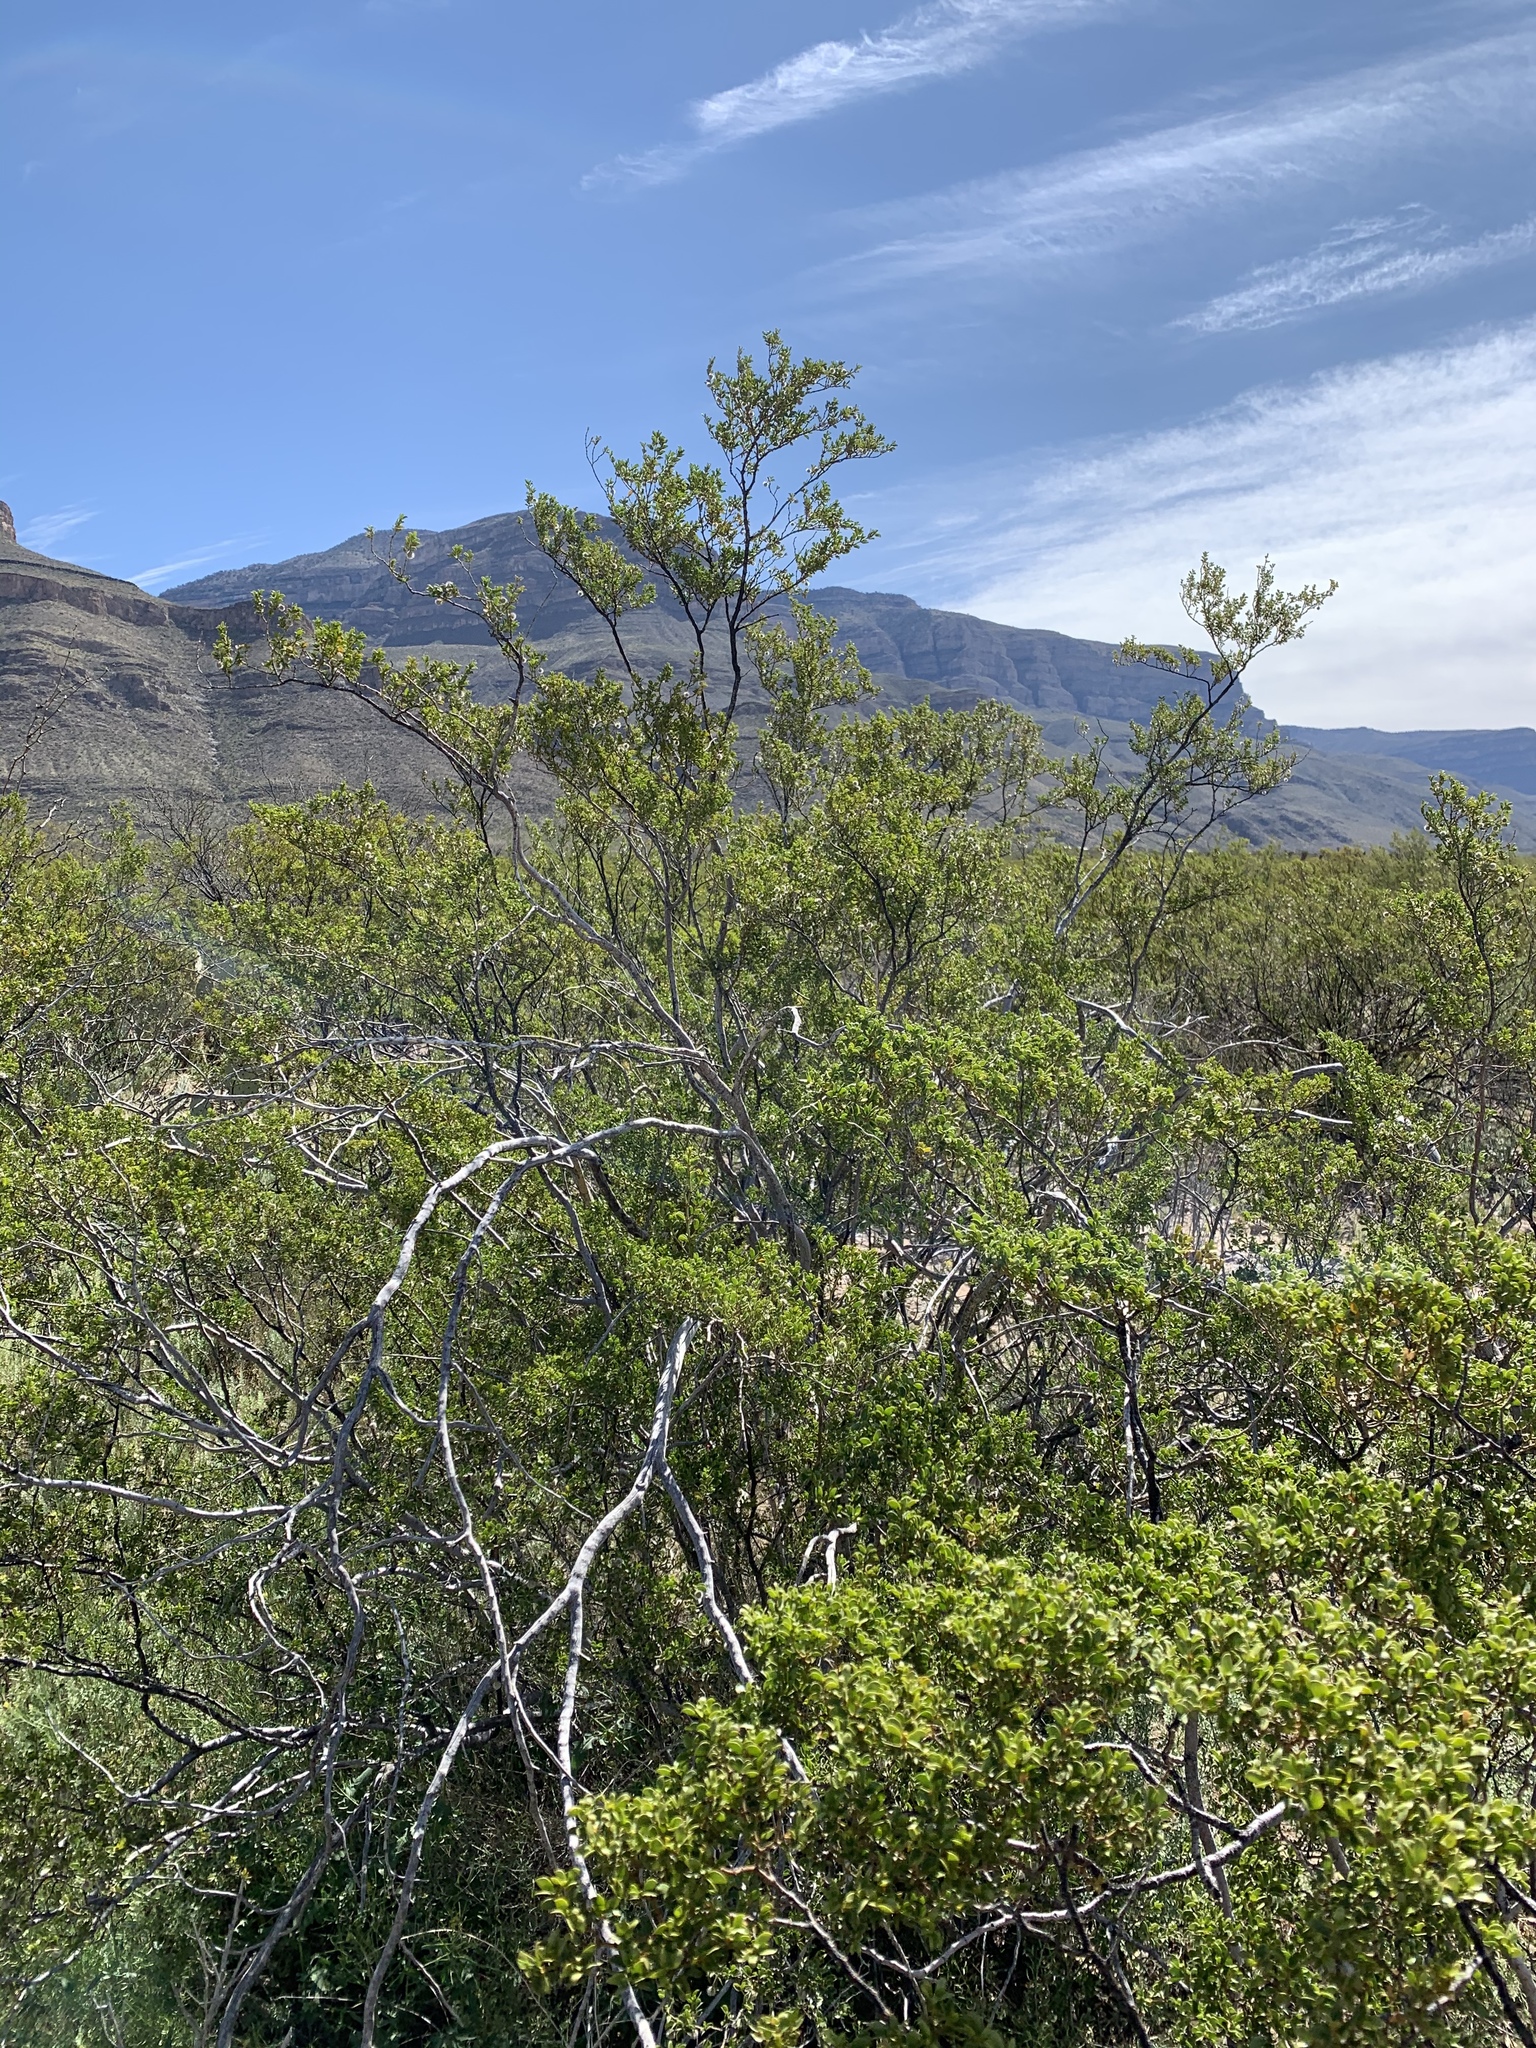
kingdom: Plantae
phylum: Tracheophyta
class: Magnoliopsida
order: Zygophyllales
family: Zygophyllaceae
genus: Larrea
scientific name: Larrea tridentata
